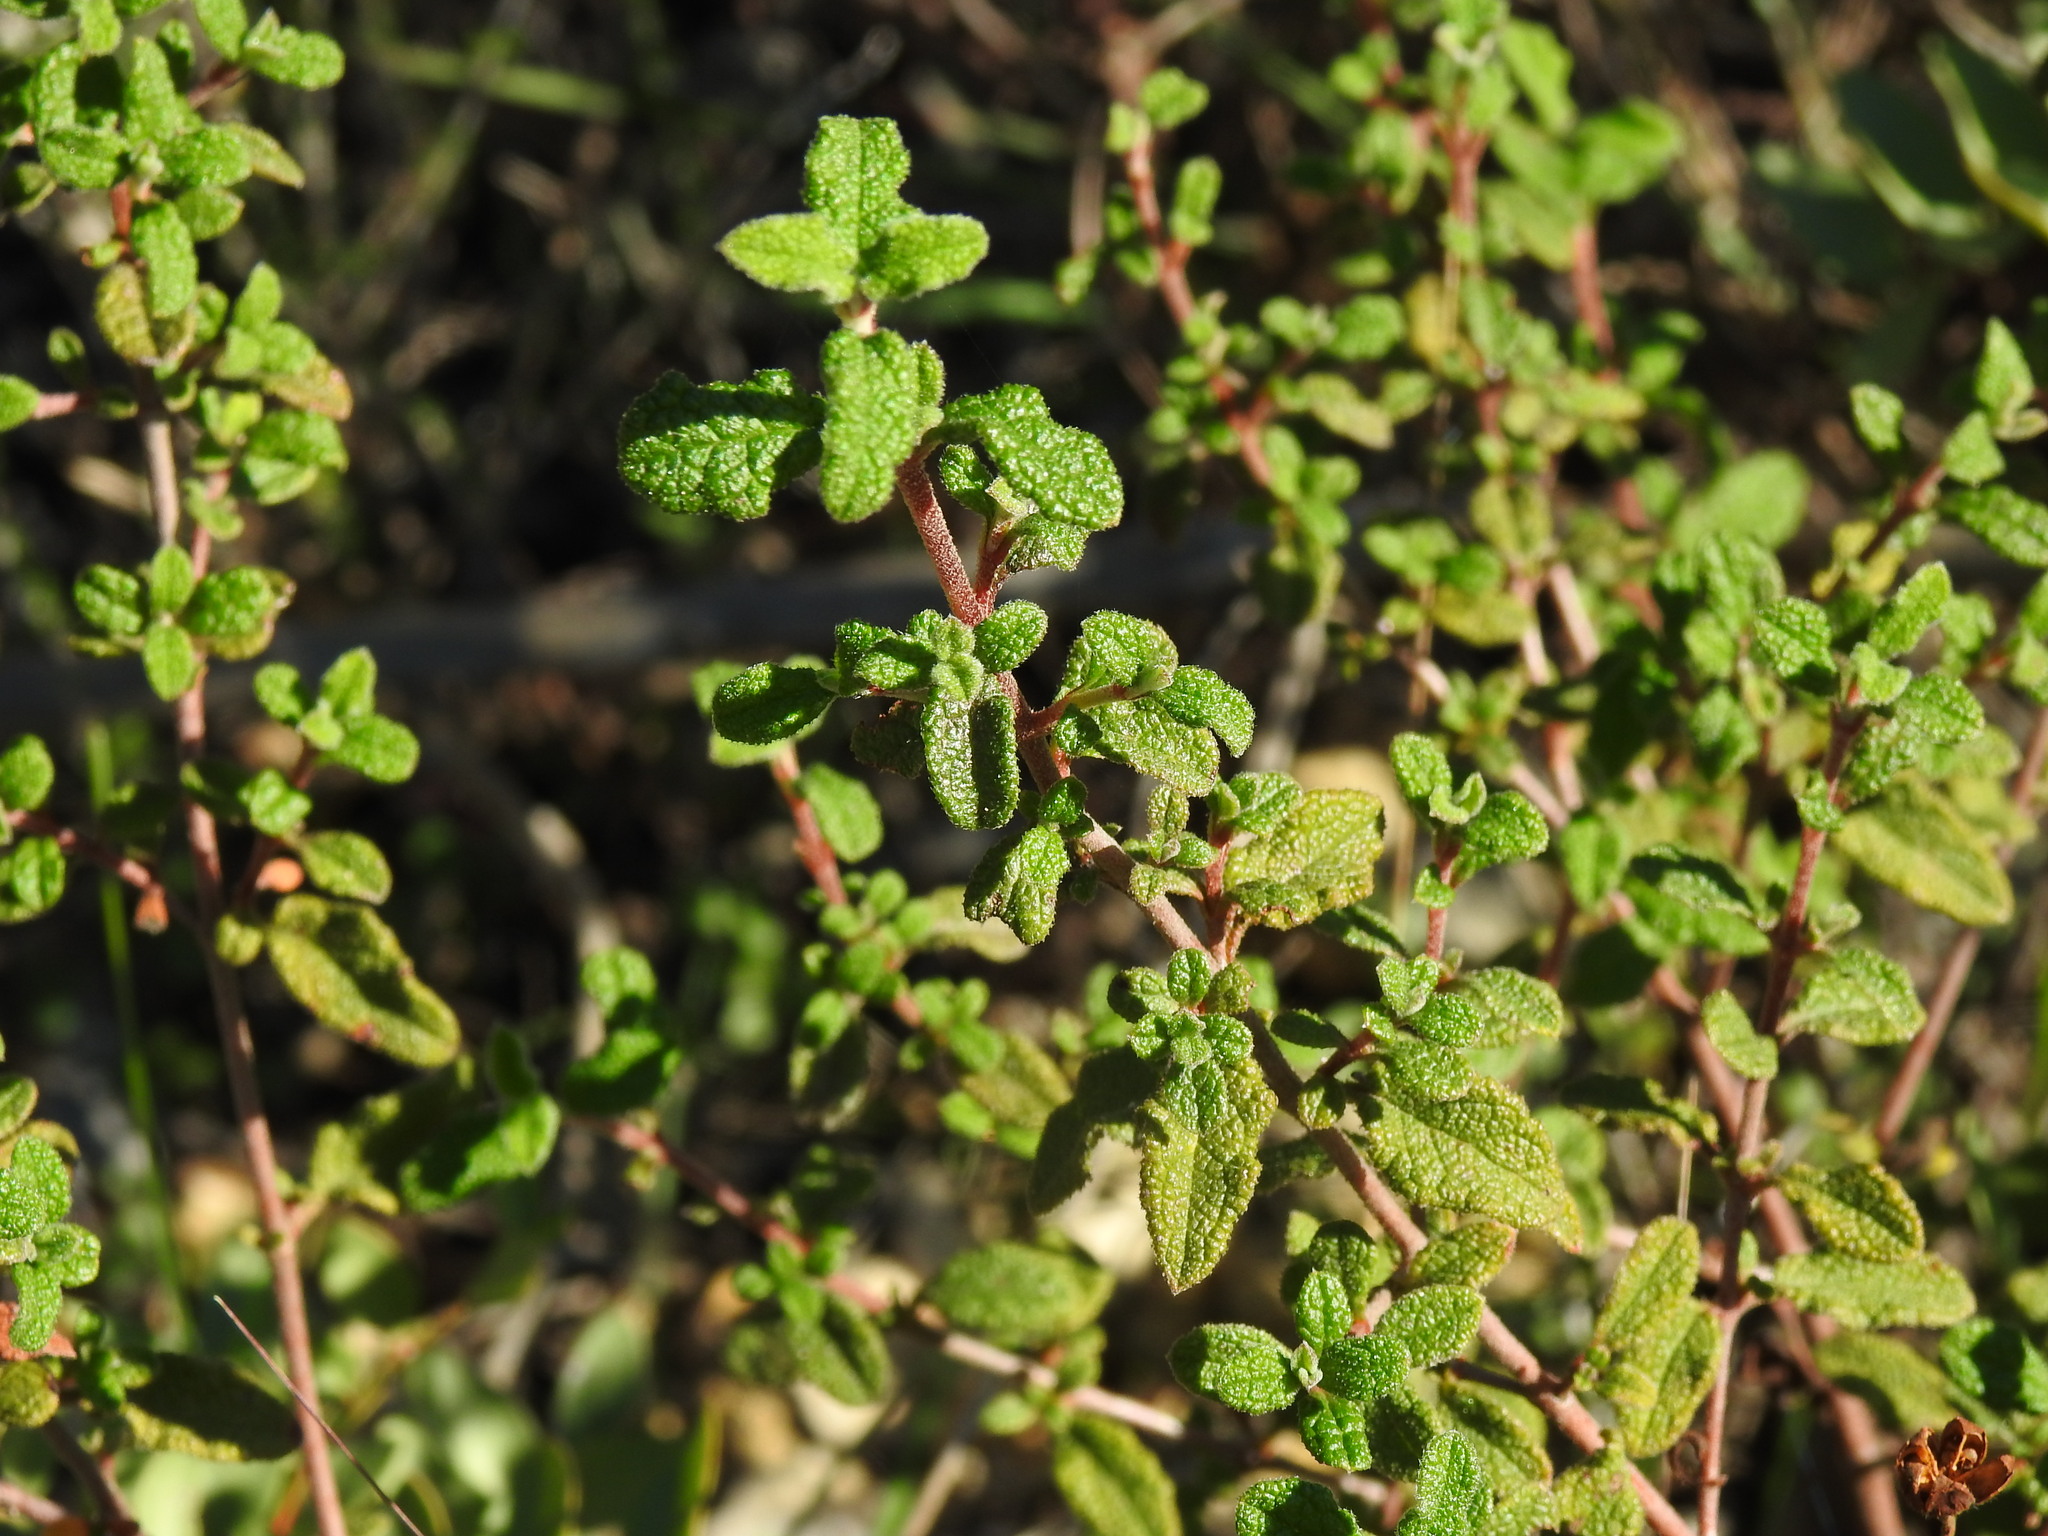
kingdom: Plantae
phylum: Tracheophyta
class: Magnoliopsida
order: Malvales
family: Cistaceae
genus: Cistus
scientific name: Cistus salviifolius
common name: Salvia cistus
